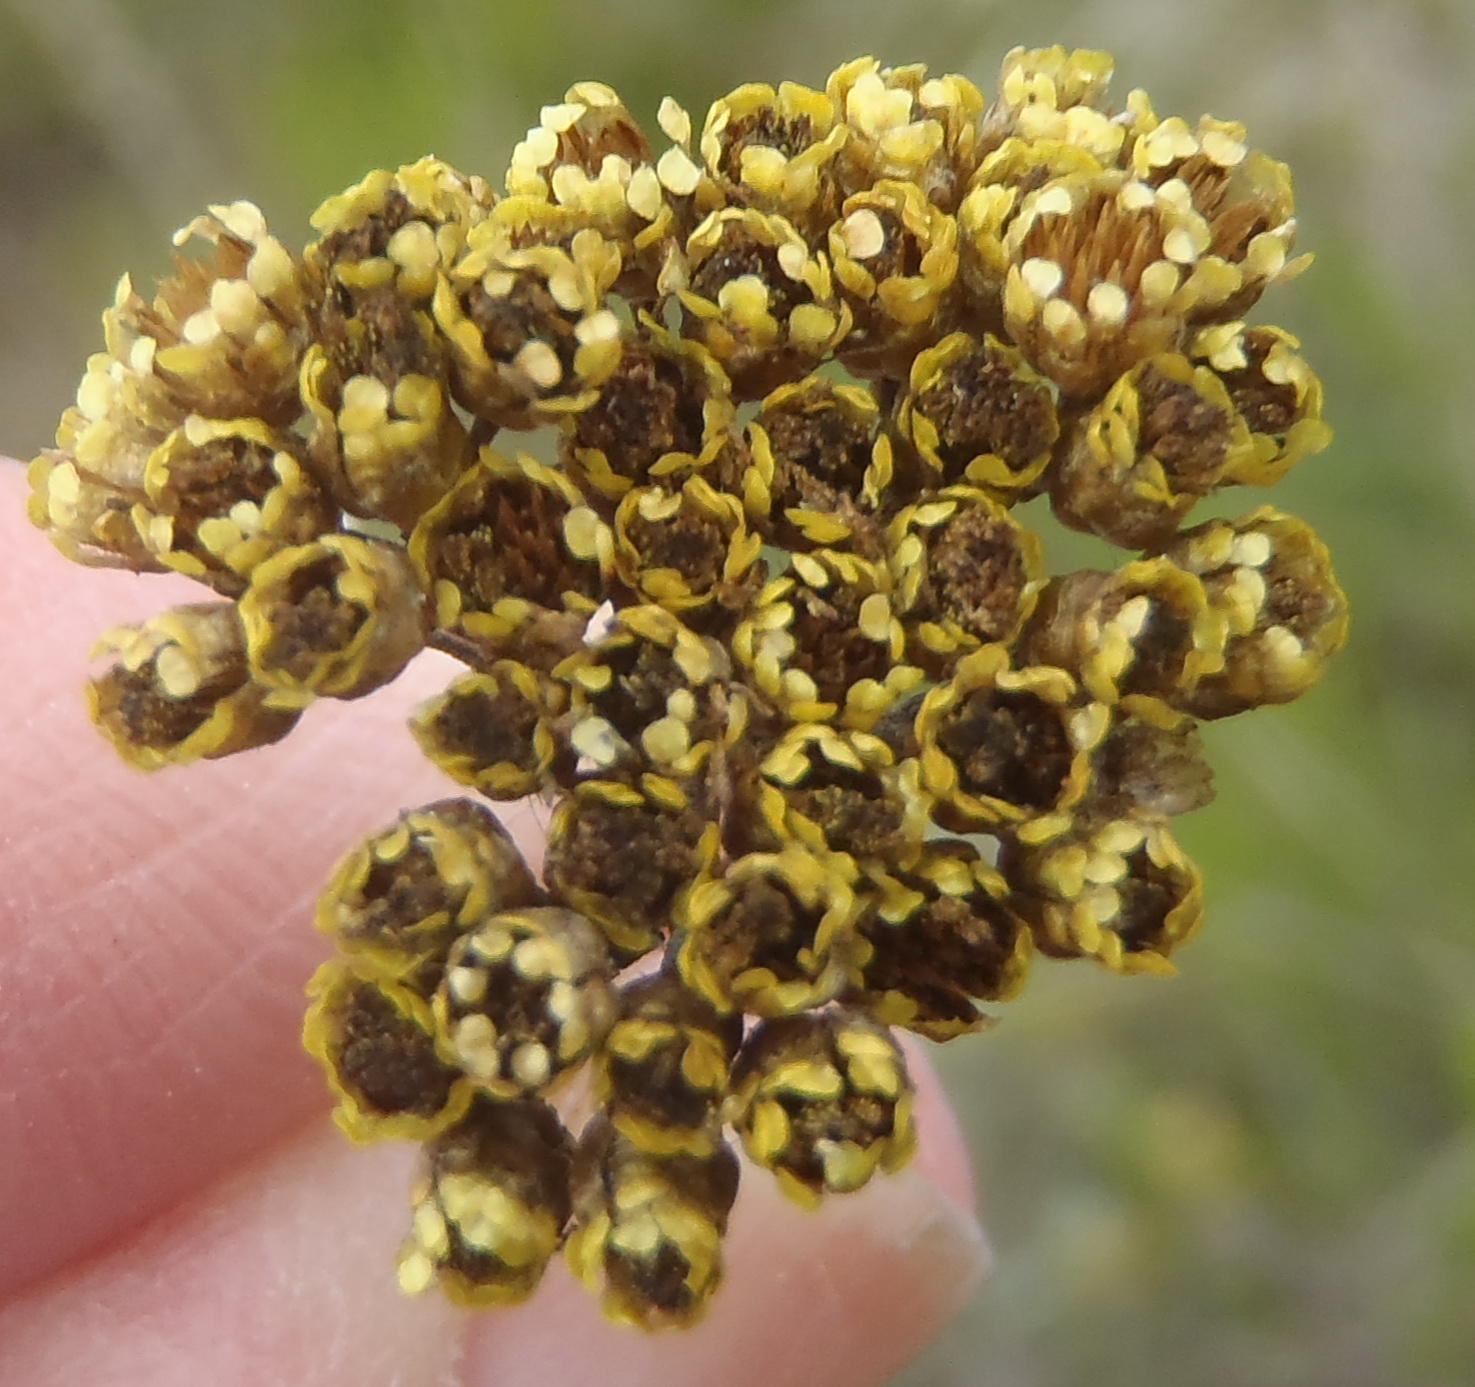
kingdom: Plantae
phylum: Tracheophyta
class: Magnoliopsida
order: Asterales
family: Asteraceae
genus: Helichrysum
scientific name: Helichrysum cymosum
